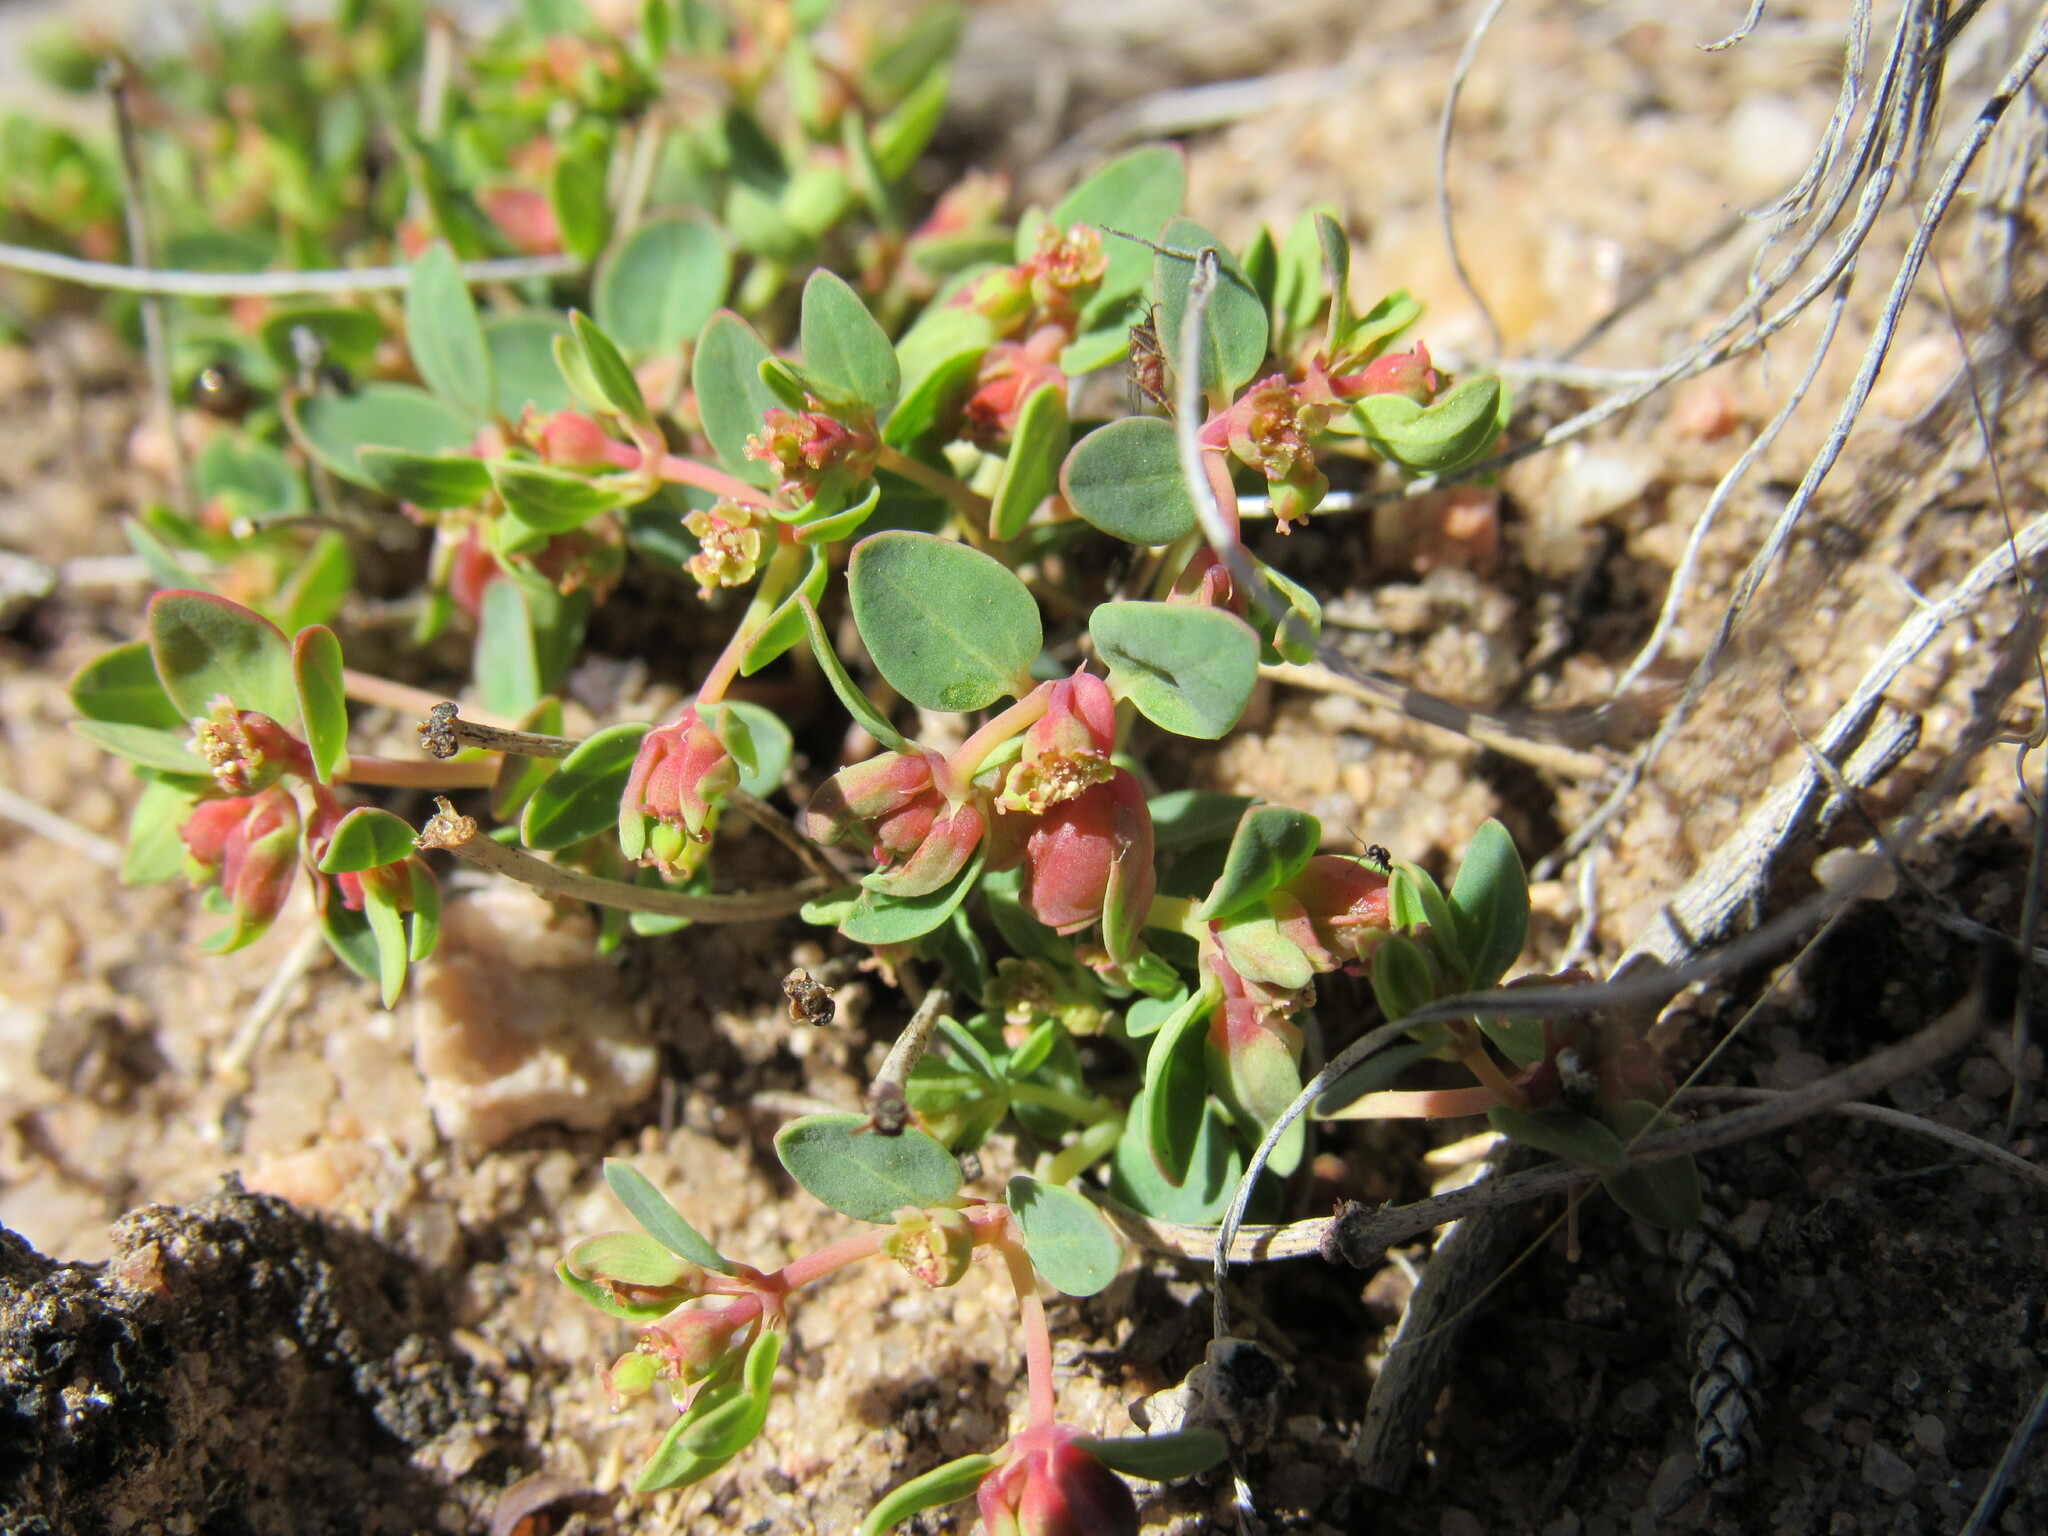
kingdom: Plantae
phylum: Tracheophyta
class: Magnoliopsida
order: Malpighiales
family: Euphorbiaceae
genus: Euphorbia
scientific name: Euphorbia fendleri
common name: Fendler's euphorbia
